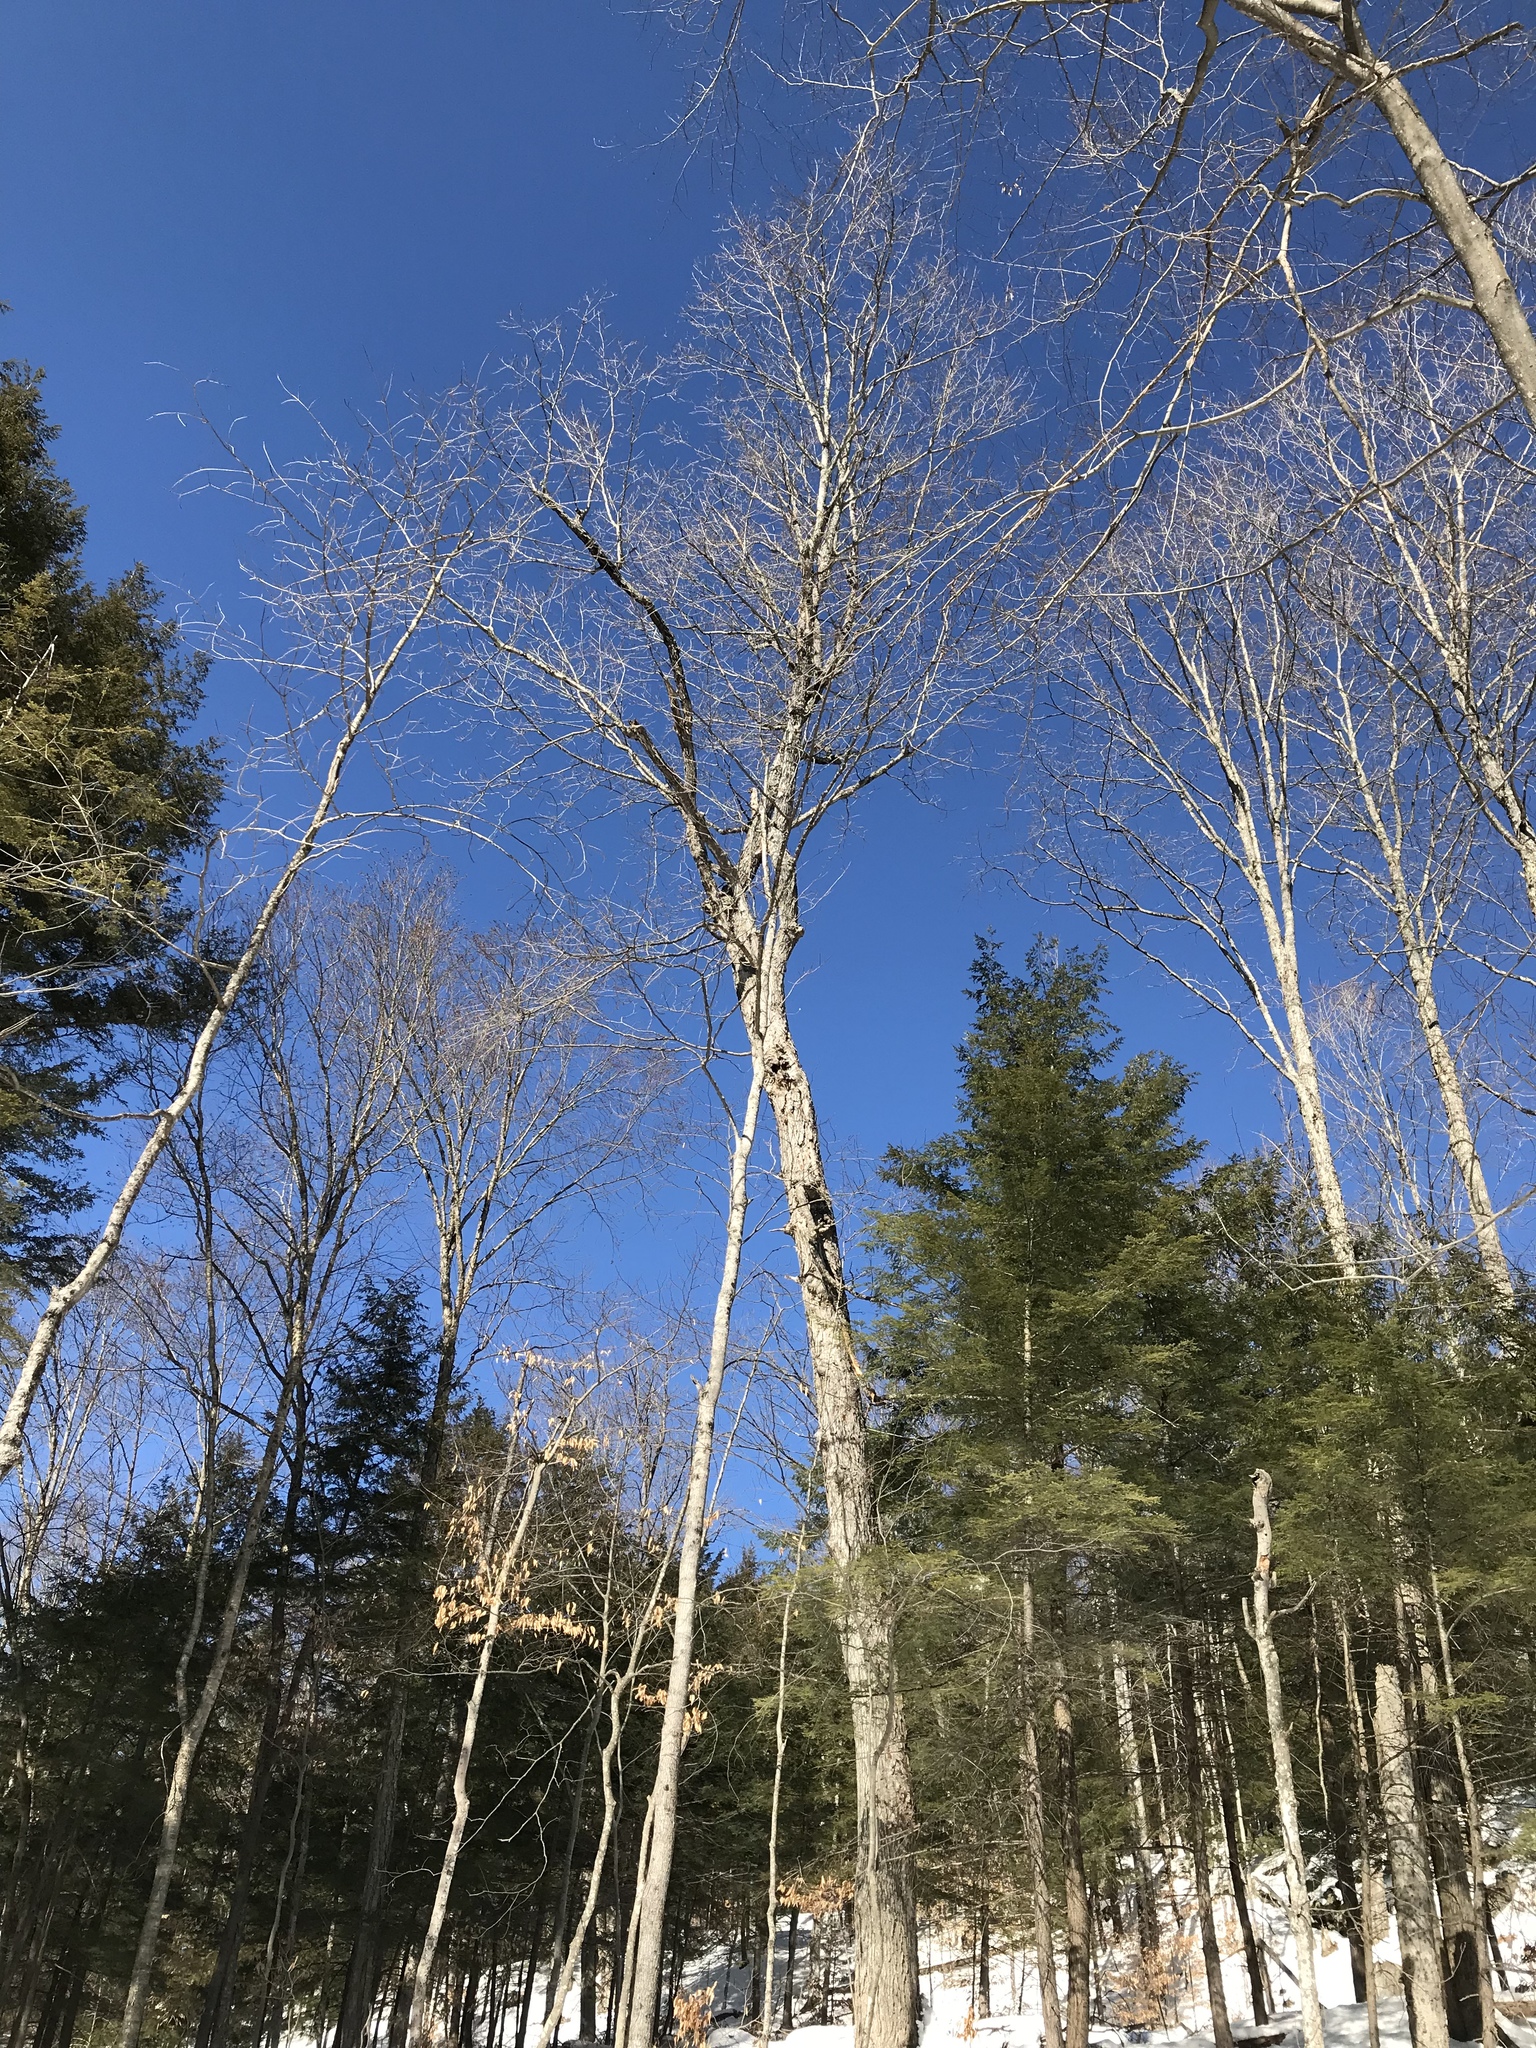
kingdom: Plantae
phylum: Tracheophyta
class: Magnoliopsida
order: Sapindales
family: Sapindaceae
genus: Acer
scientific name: Acer saccharum
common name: Sugar maple
